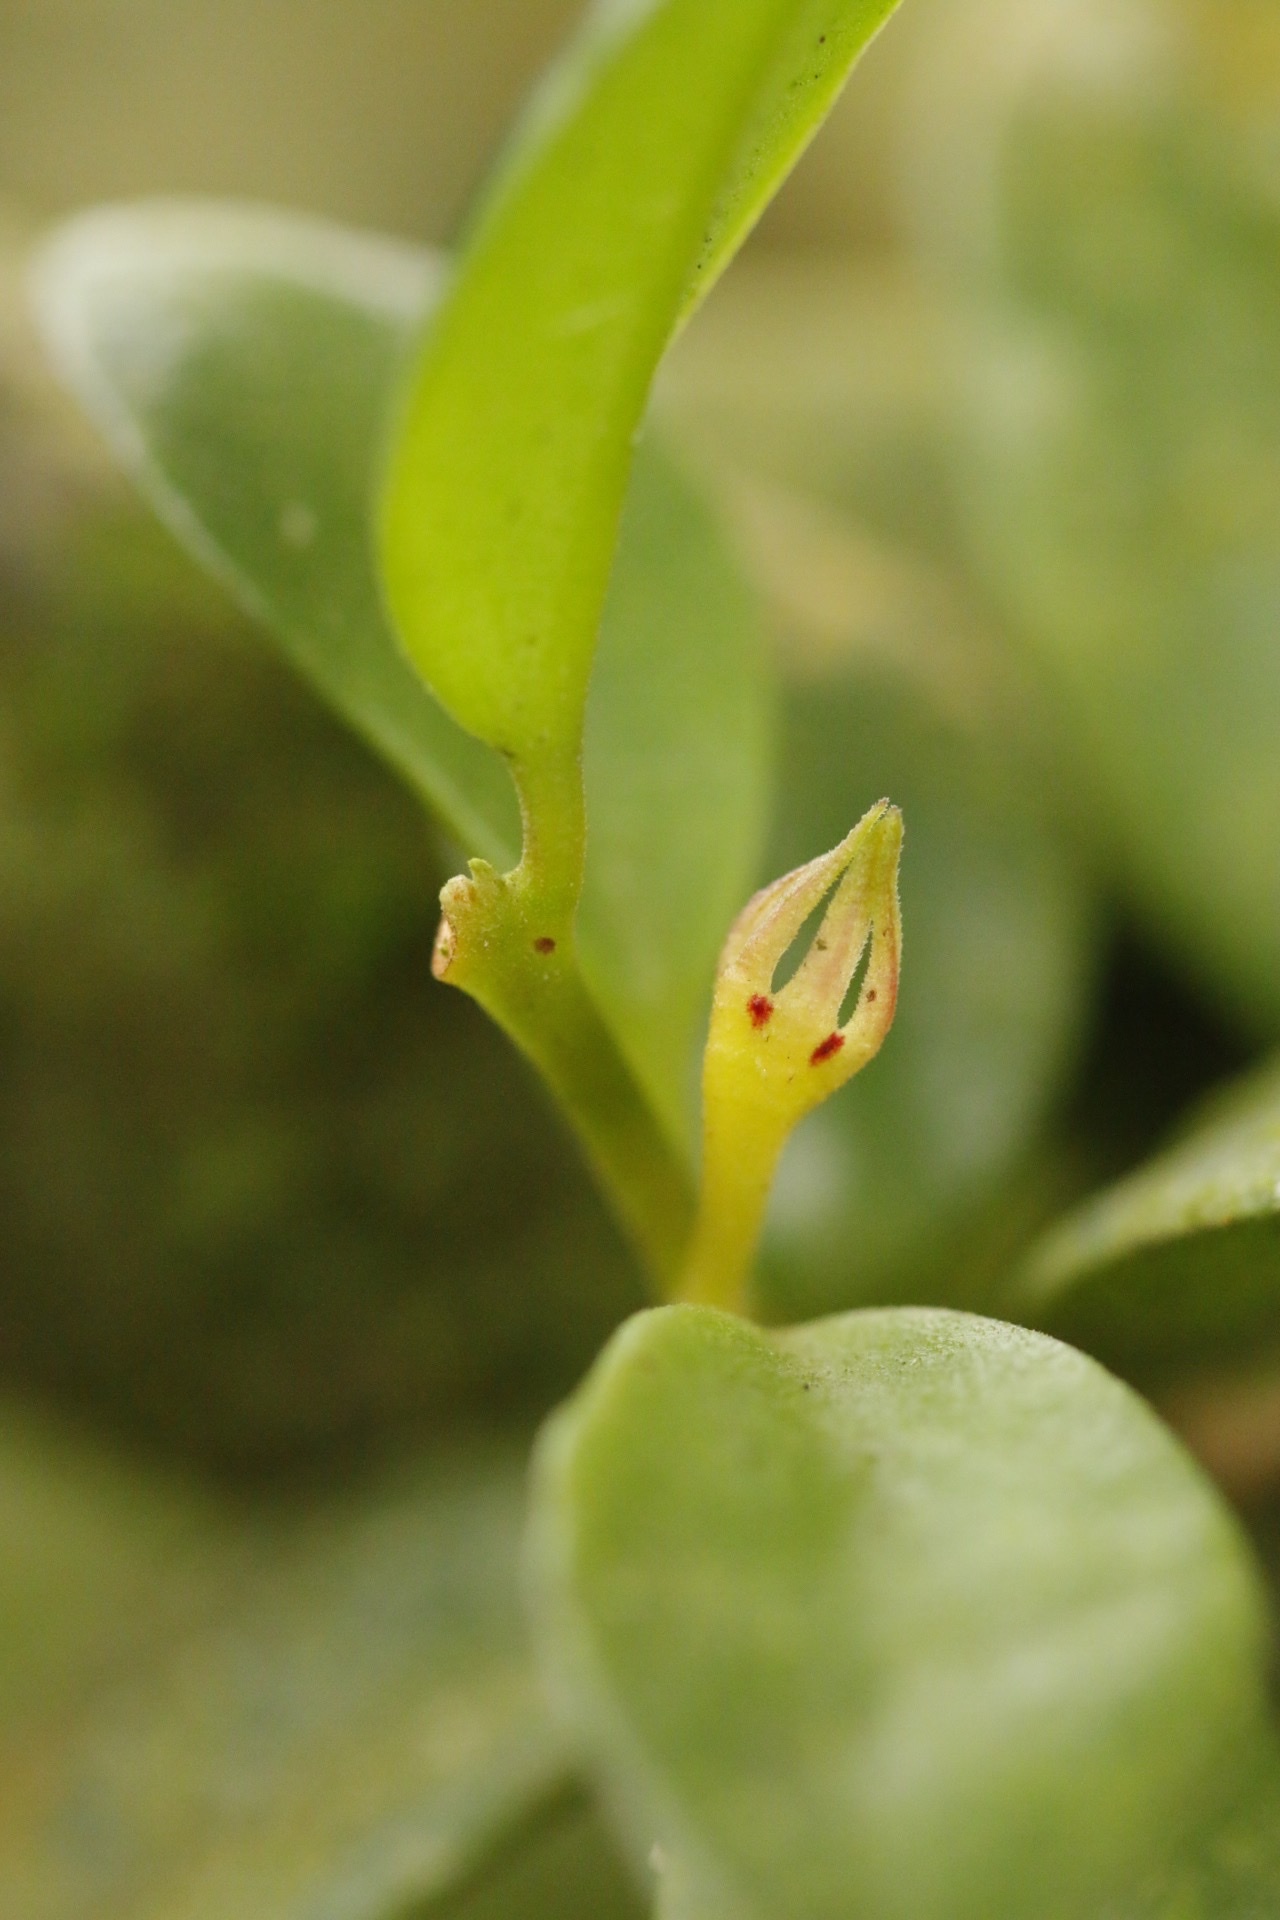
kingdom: Plantae
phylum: Tracheophyta
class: Magnoliopsida
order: Lamiales
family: Gesneriaceae
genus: Codonanthopsis
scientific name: Codonanthopsis crassifolia
